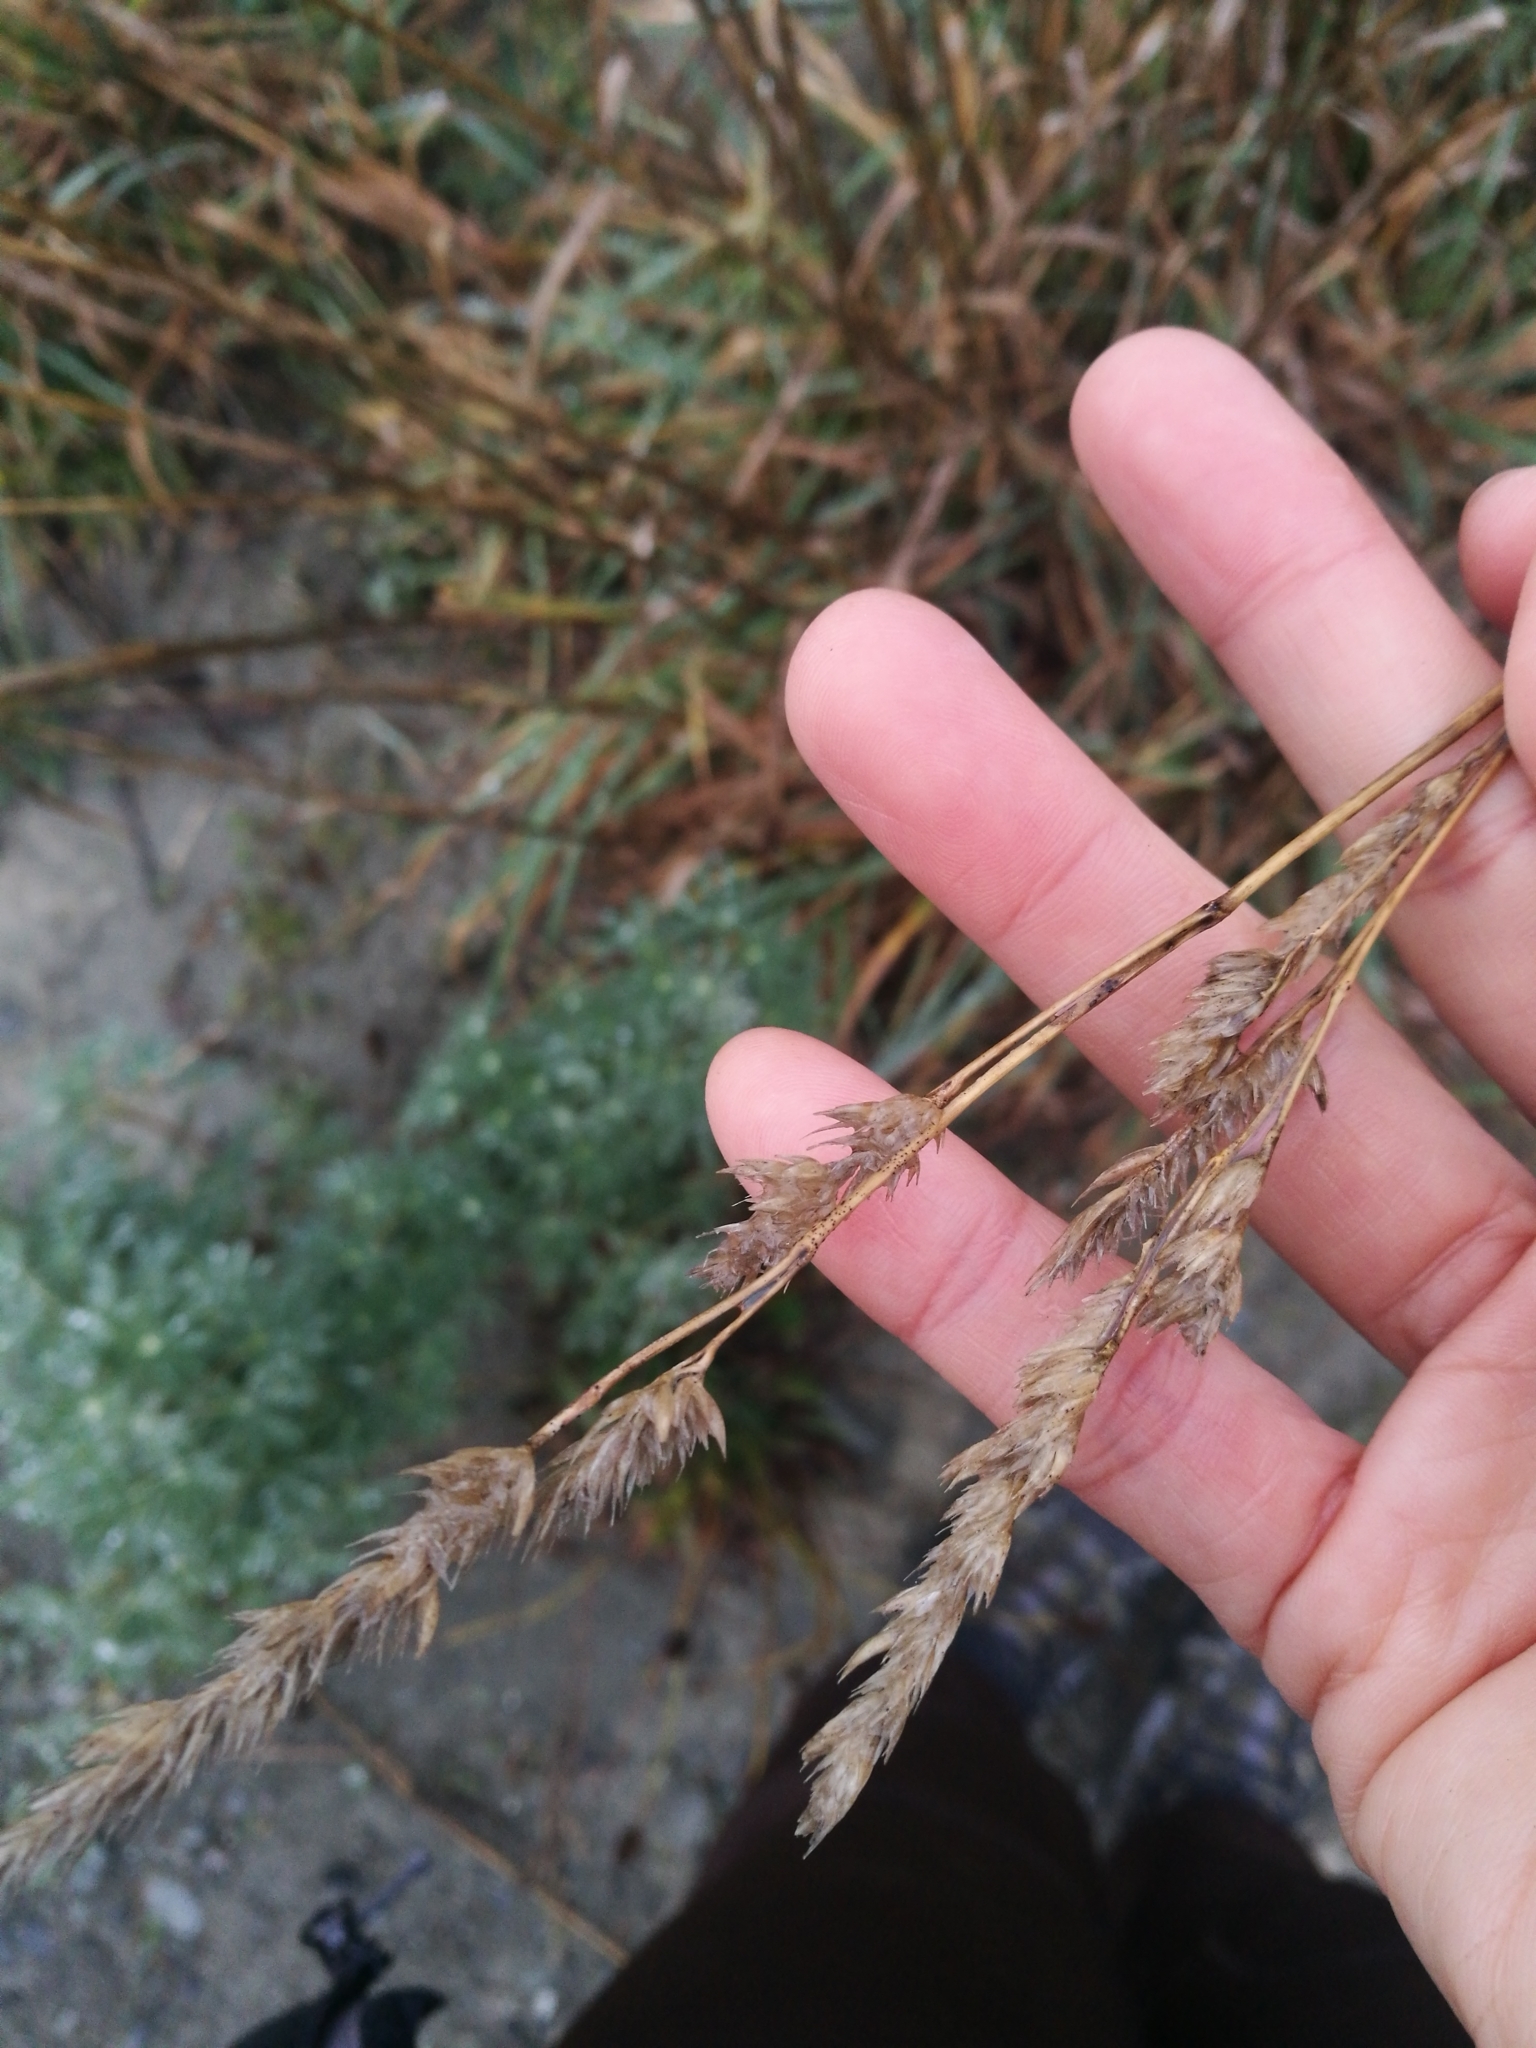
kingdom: Plantae
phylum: Tracheophyta
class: Liliopsida
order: Poales
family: Poaceae
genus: Dactylis
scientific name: Dactylis glomerata
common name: Orchardgrass
